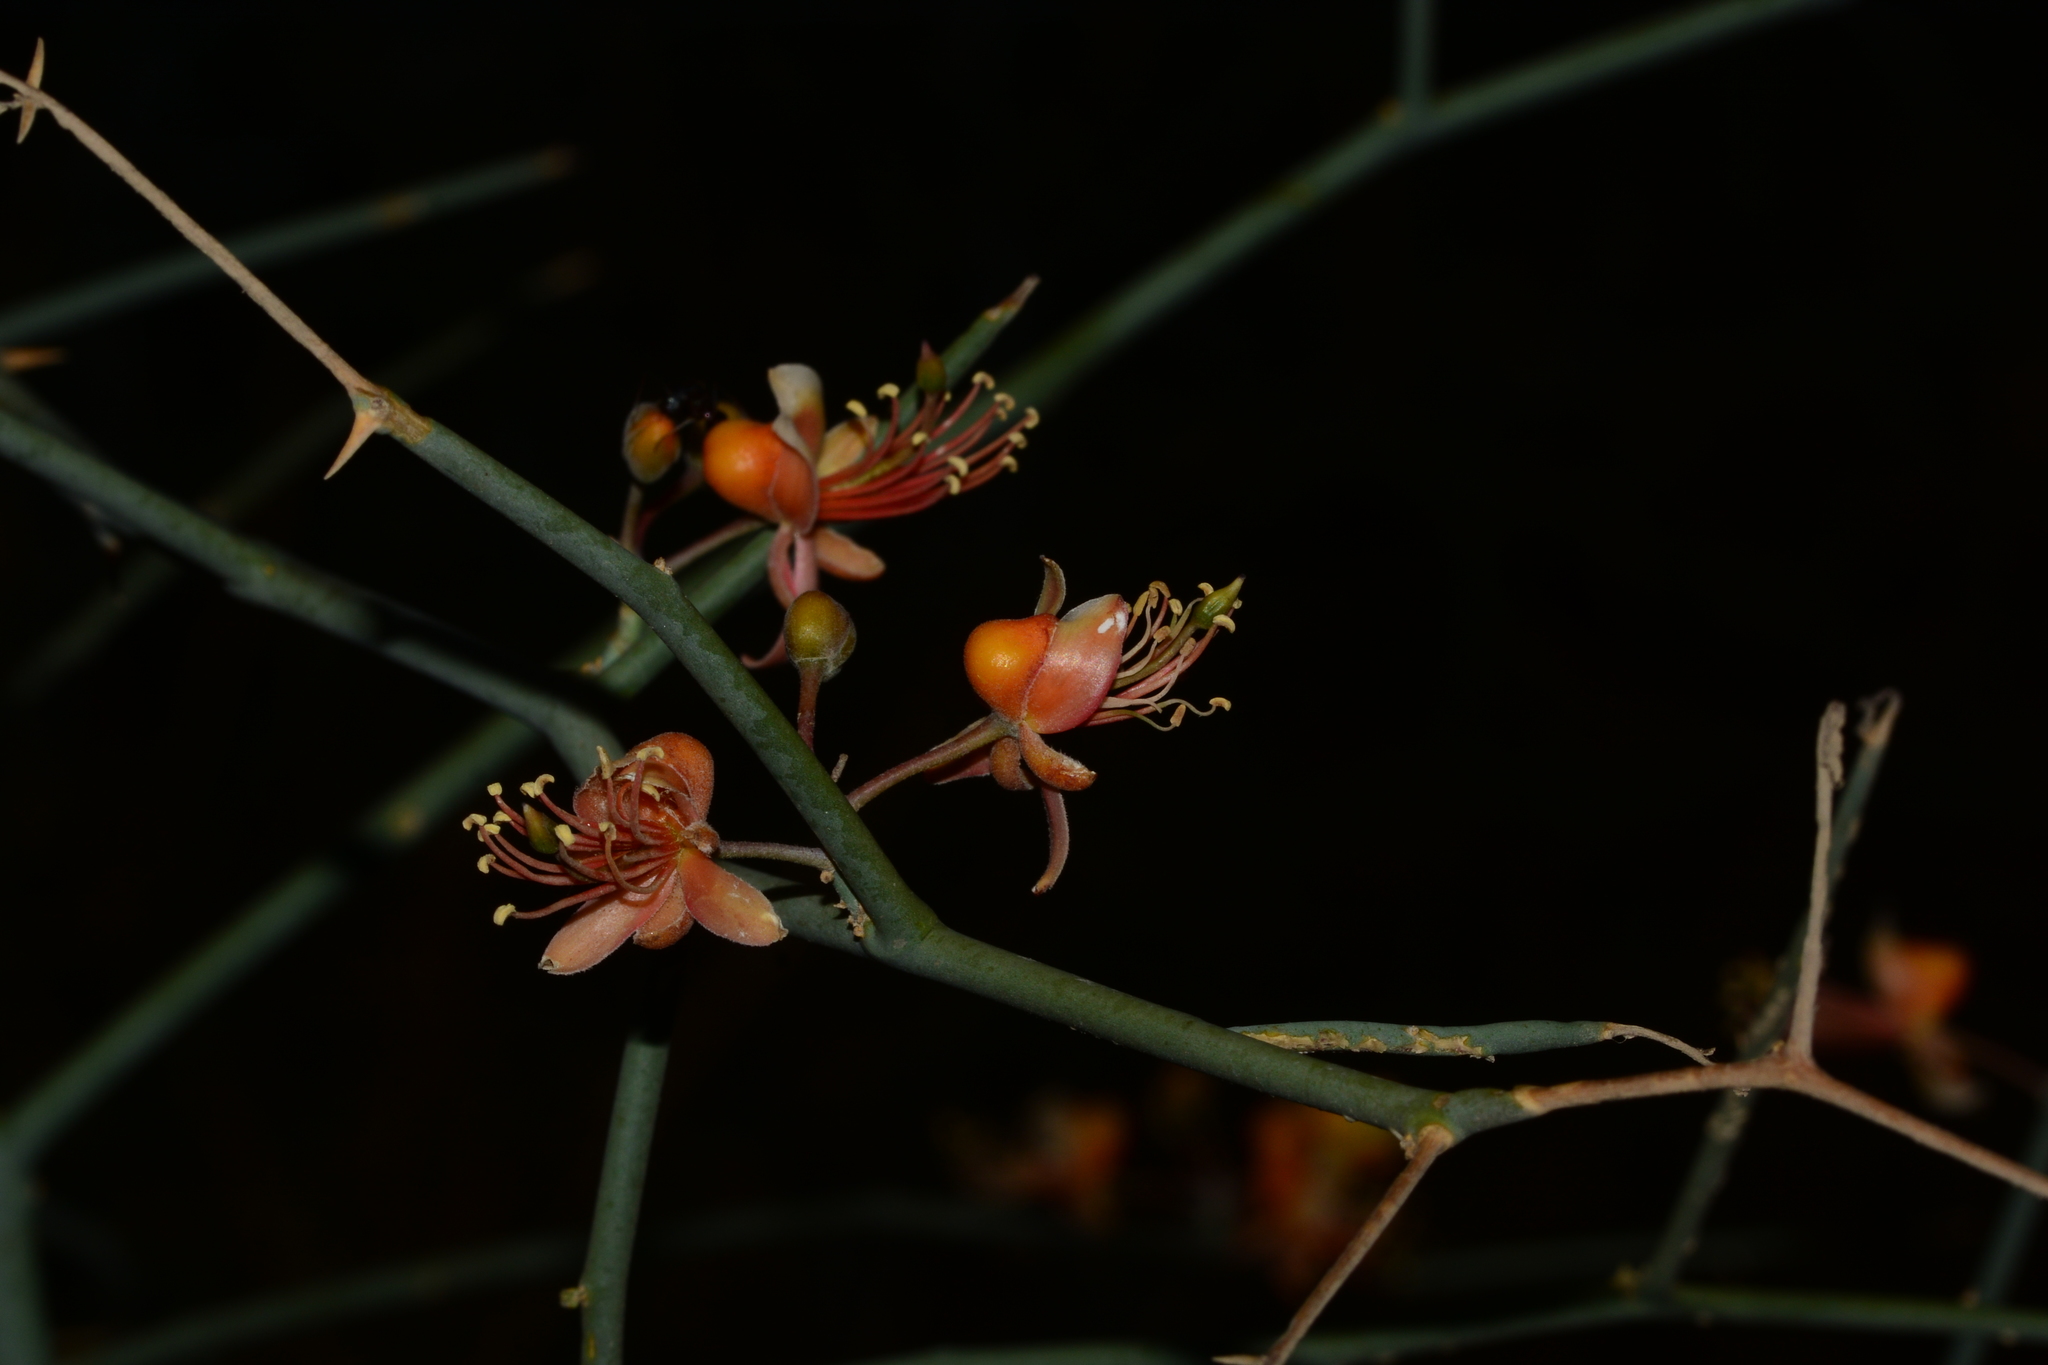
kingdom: Plantae
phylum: Tracheophyta
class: Magnoliopsida
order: Brassicales
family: Capparaceae
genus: Capparis
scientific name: Capparis decidua
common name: Sodada
